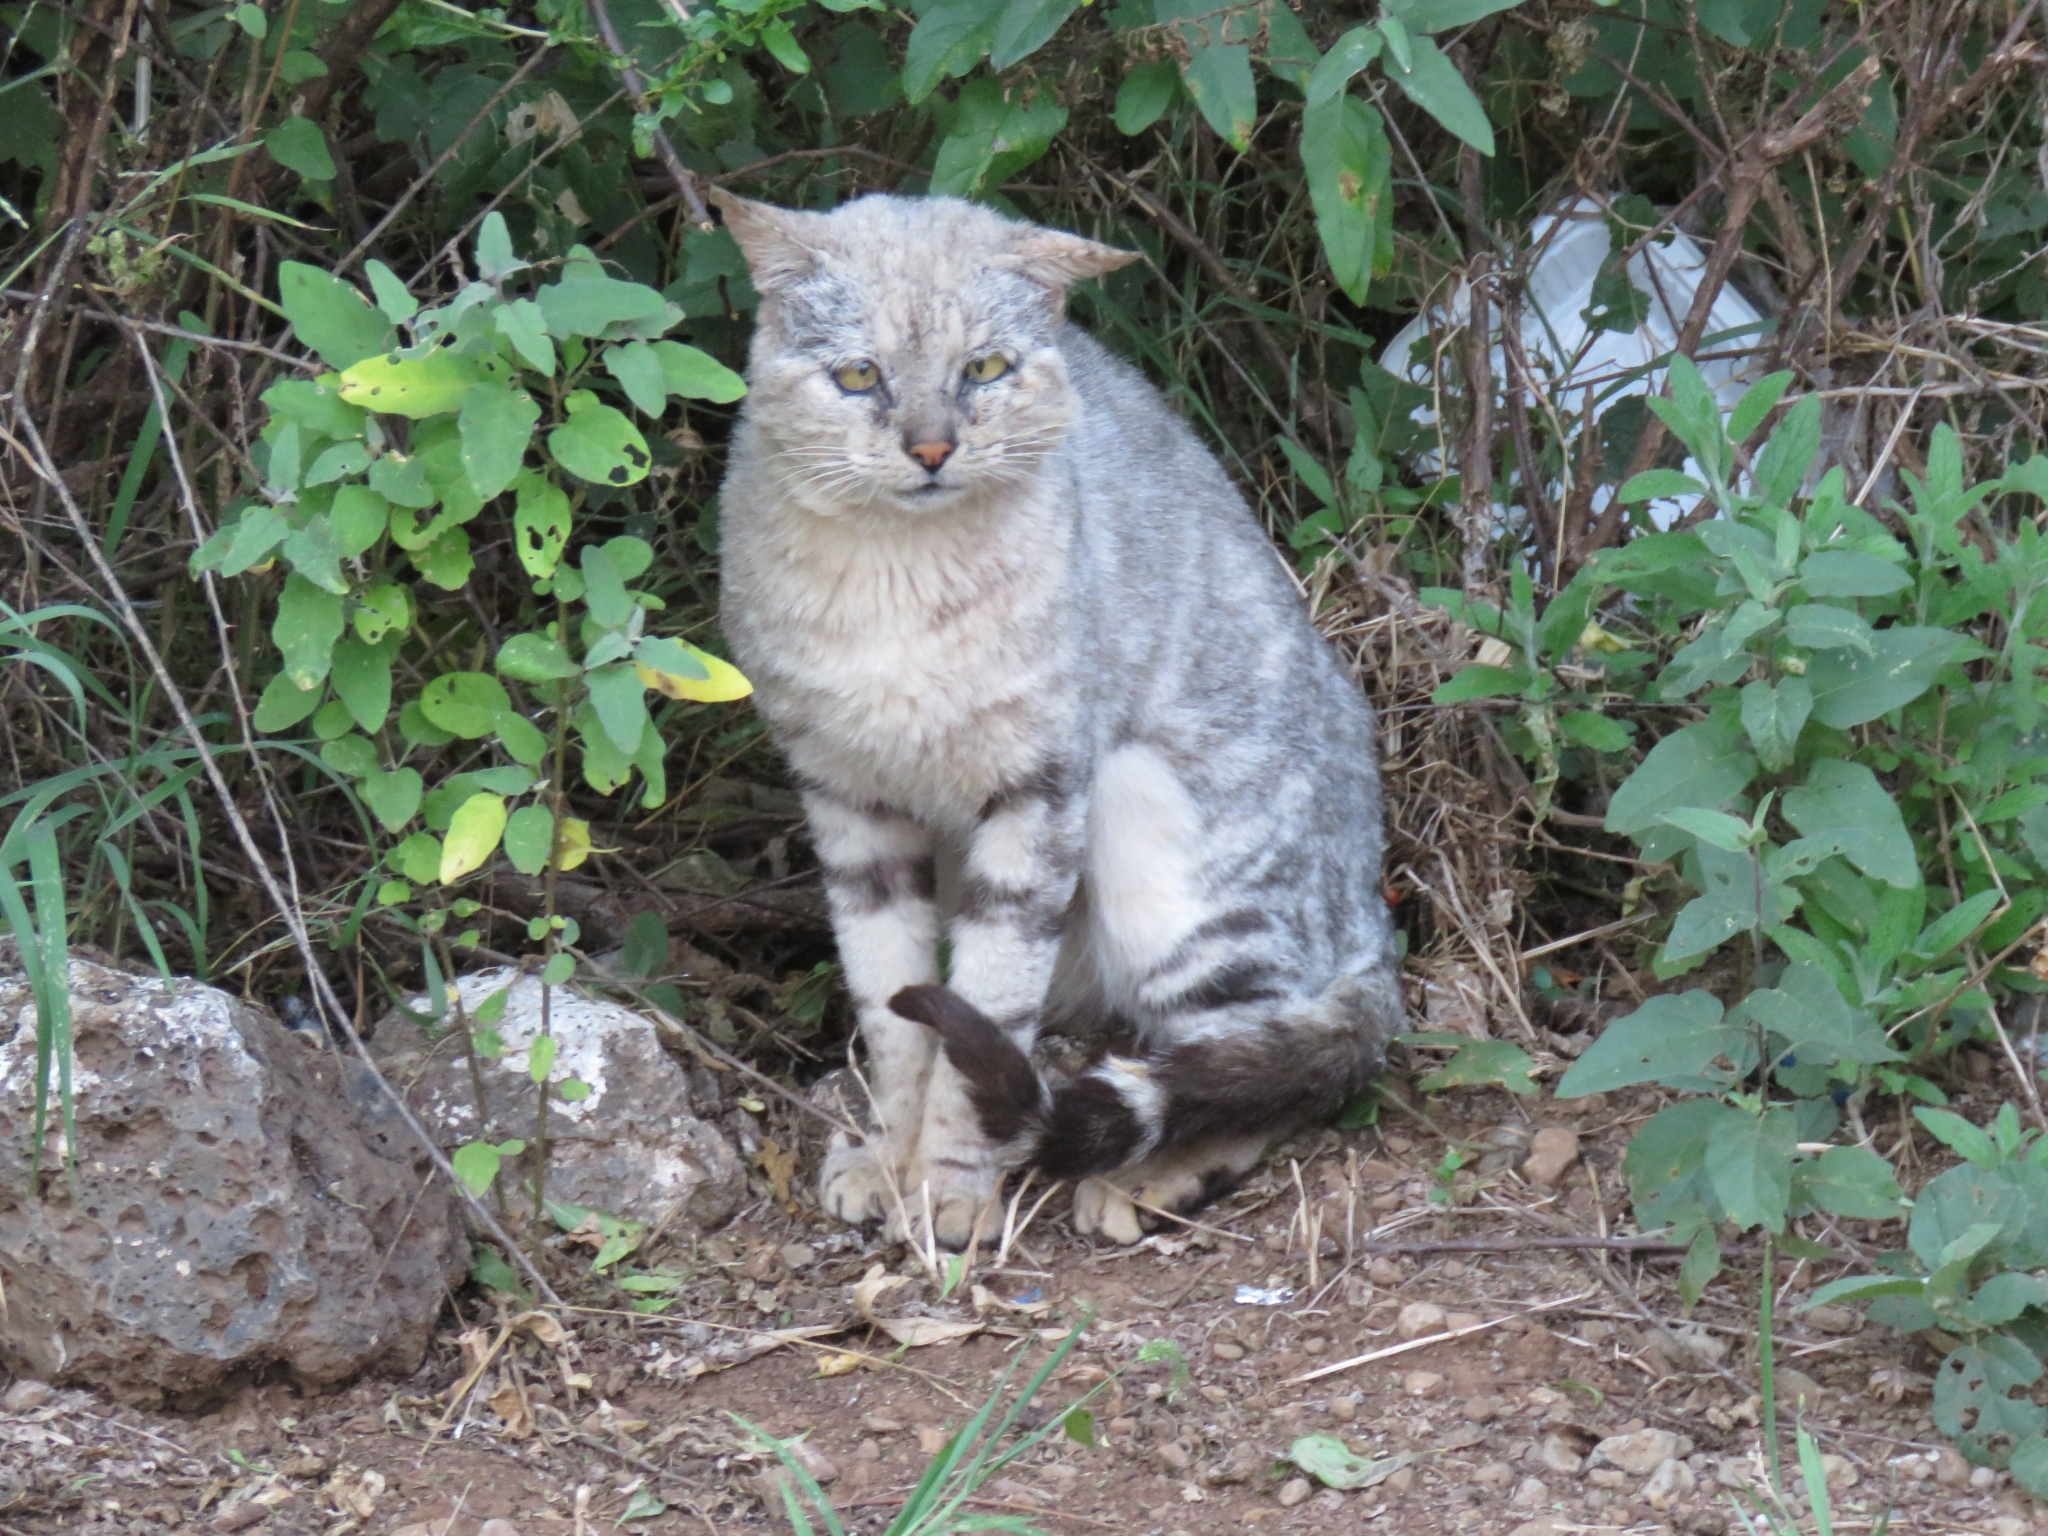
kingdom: Animalia
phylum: Chordata
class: Mammalia
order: Carnivora
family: Felidae
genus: Felis
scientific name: Felis catus
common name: Domestic cat
